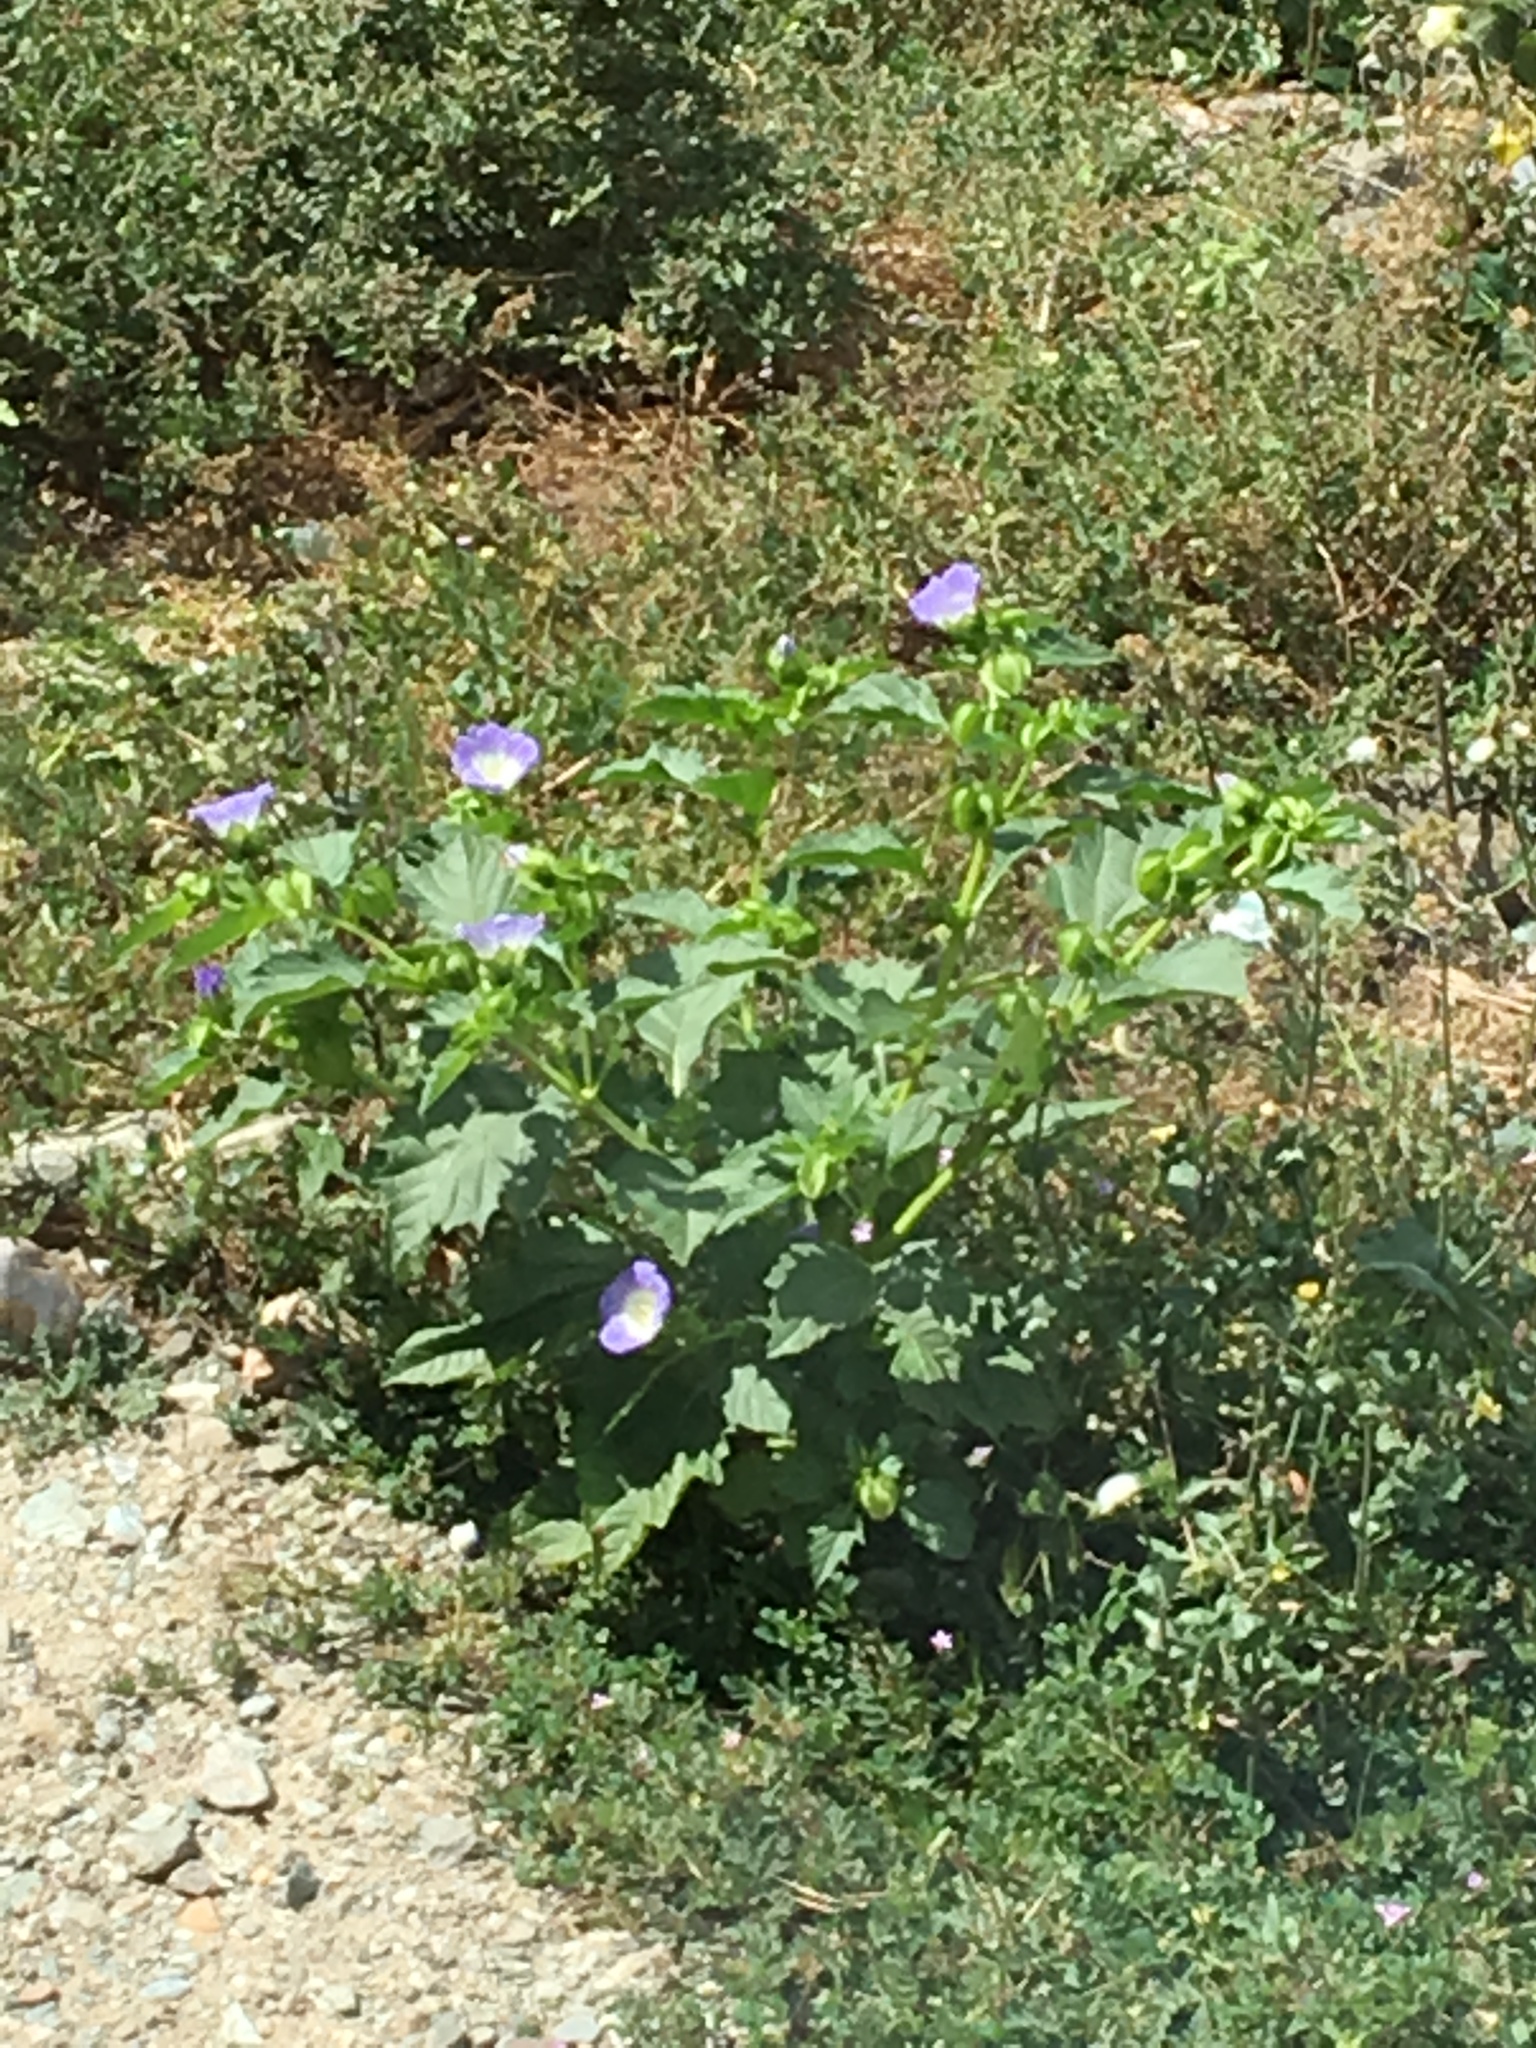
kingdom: Plantae
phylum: Tracheophyta
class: Magnoliopsida
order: Solanales
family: Solanaceae
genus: Nicandra
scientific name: Nicandra physalodes
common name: Apple-of-peru
